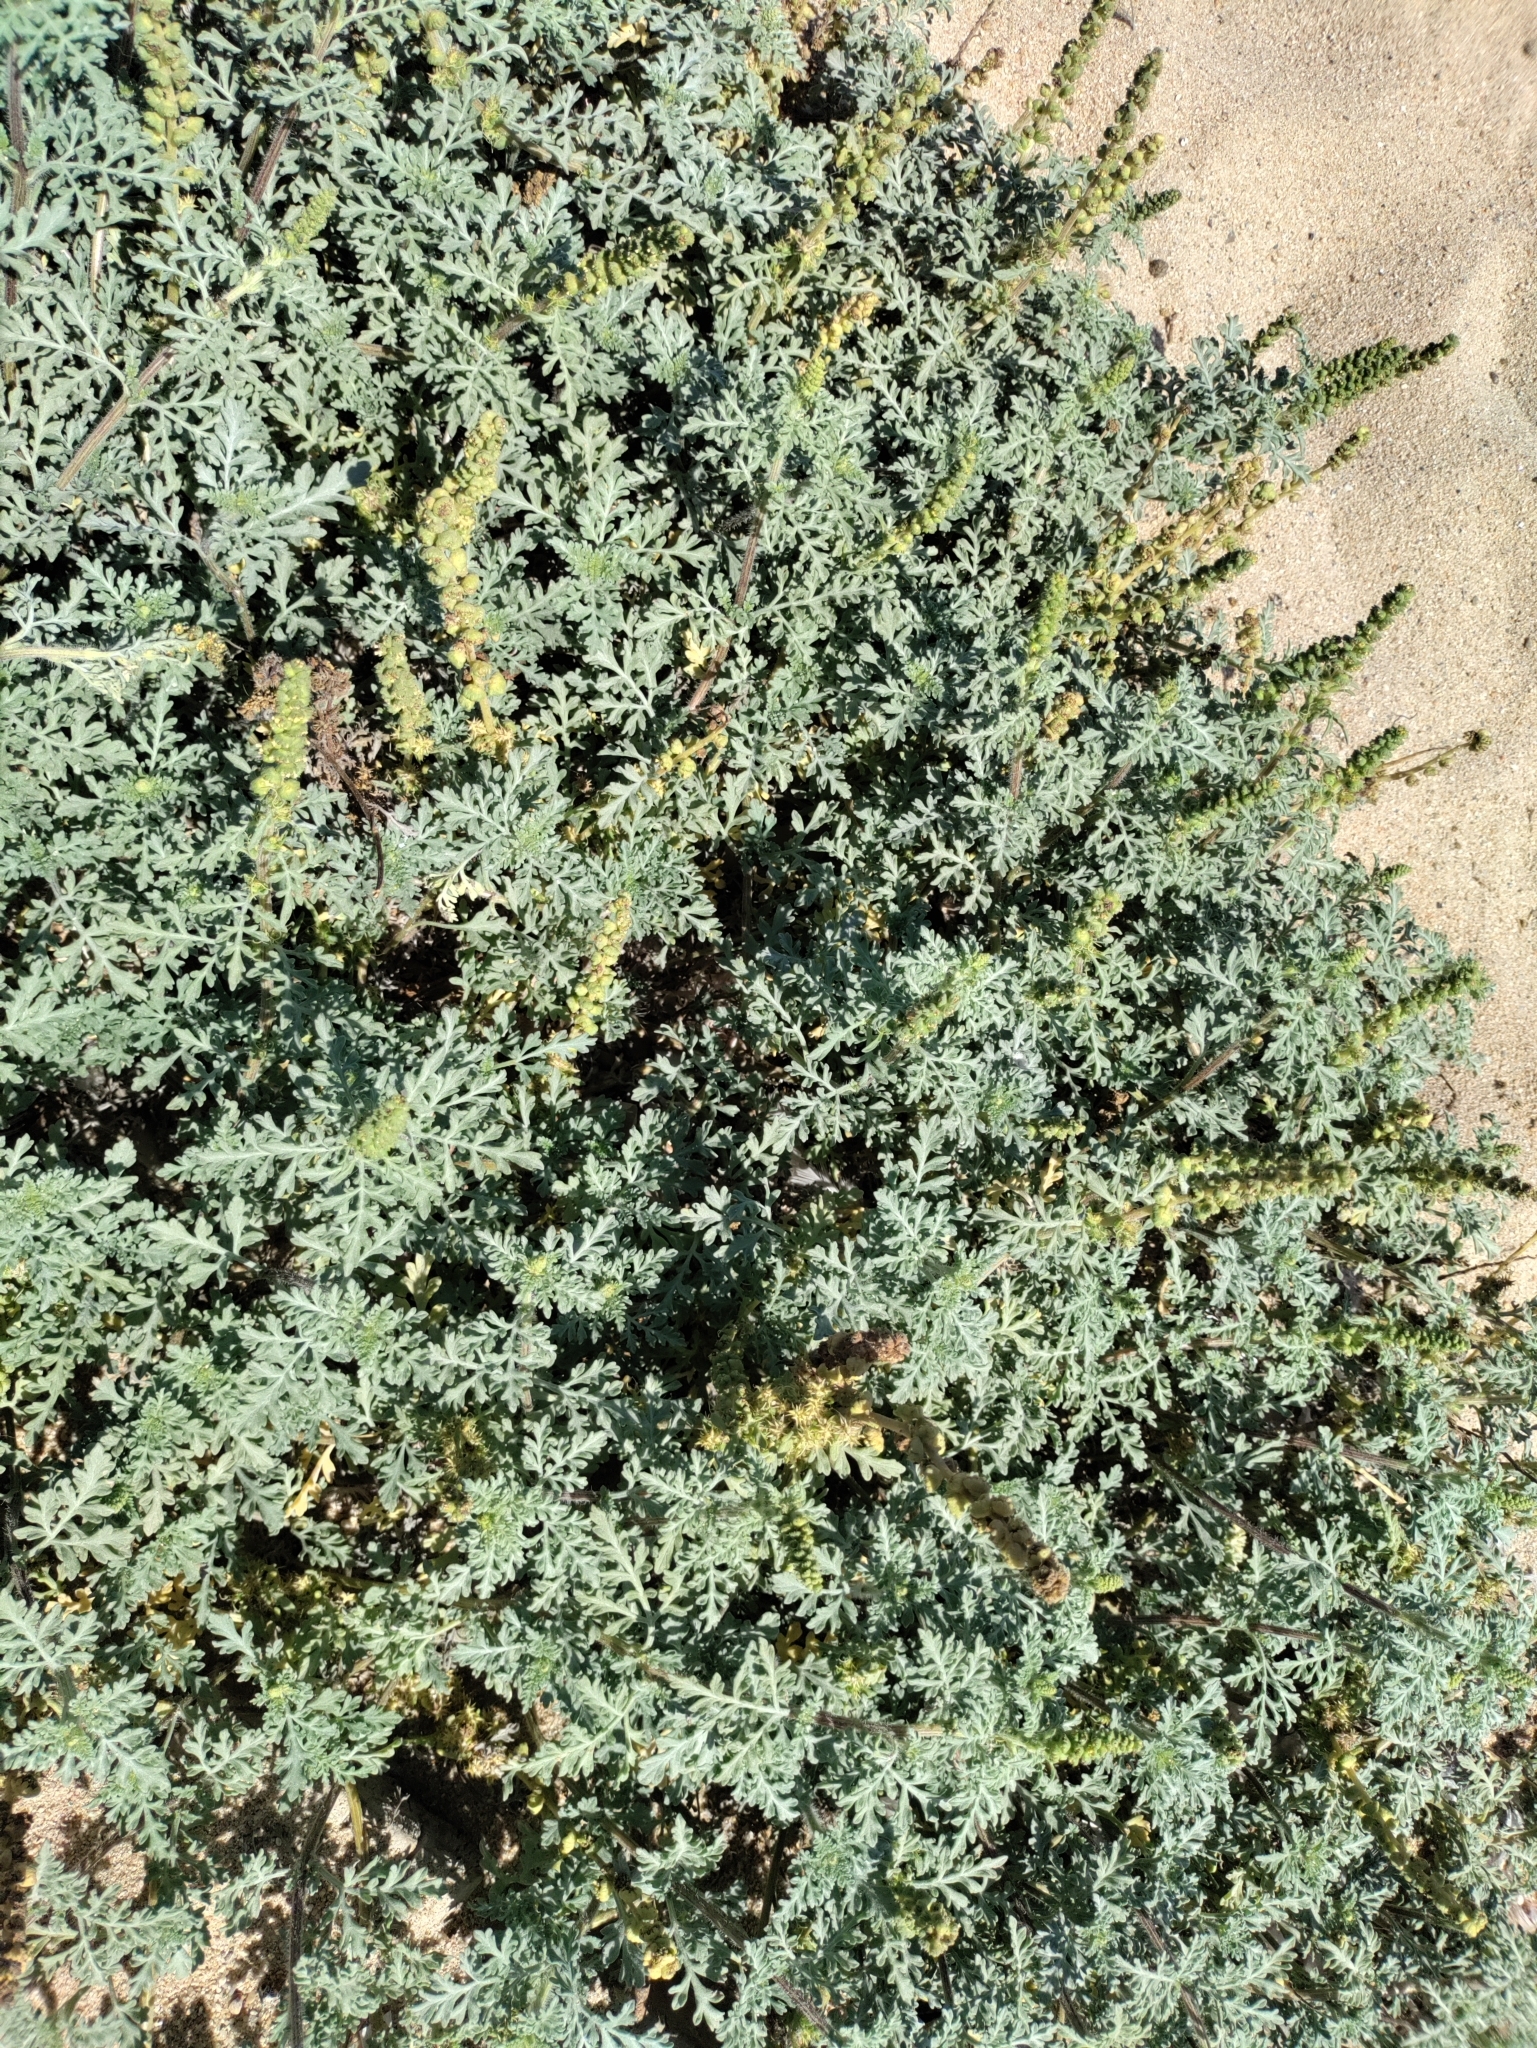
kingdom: Plantae
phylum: Tracheophyta
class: Magnoliopsida
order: Asterales
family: Asteraceae
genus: Ambrosia
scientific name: Ambrosia chamissonis
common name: Beachbur
